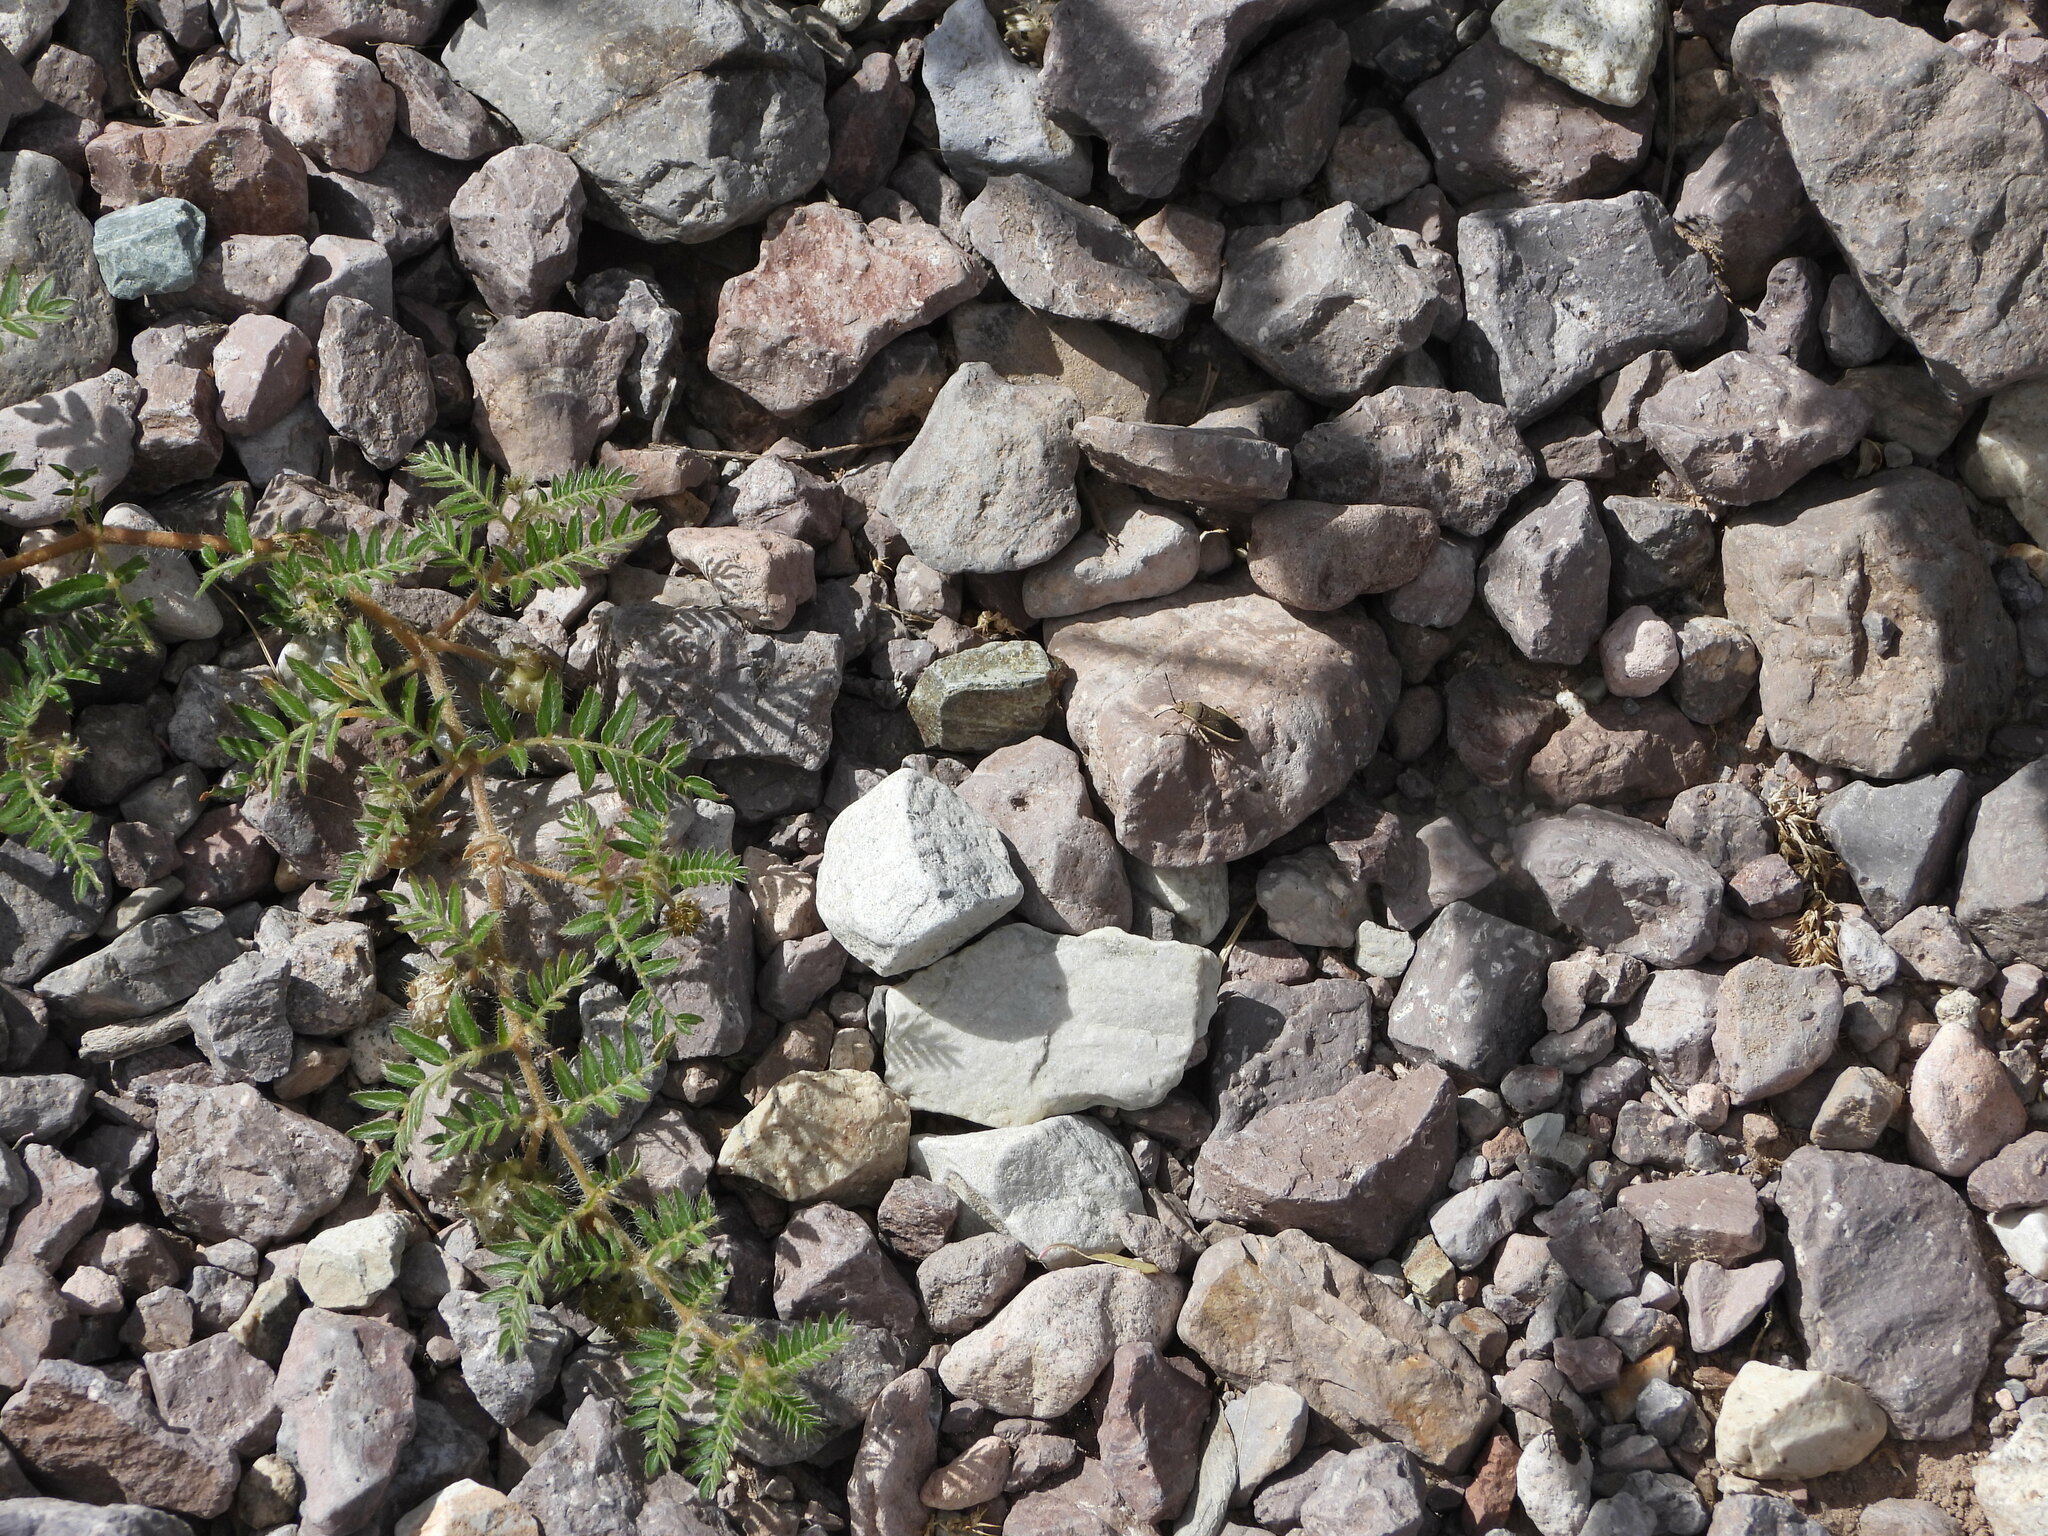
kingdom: Plantae
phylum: Tracheophyta
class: Magnoliopsida
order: Zygophyllales
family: Zygophyllaceae
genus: Tribulus
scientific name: Tribulus terrestris
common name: Puncturevine
